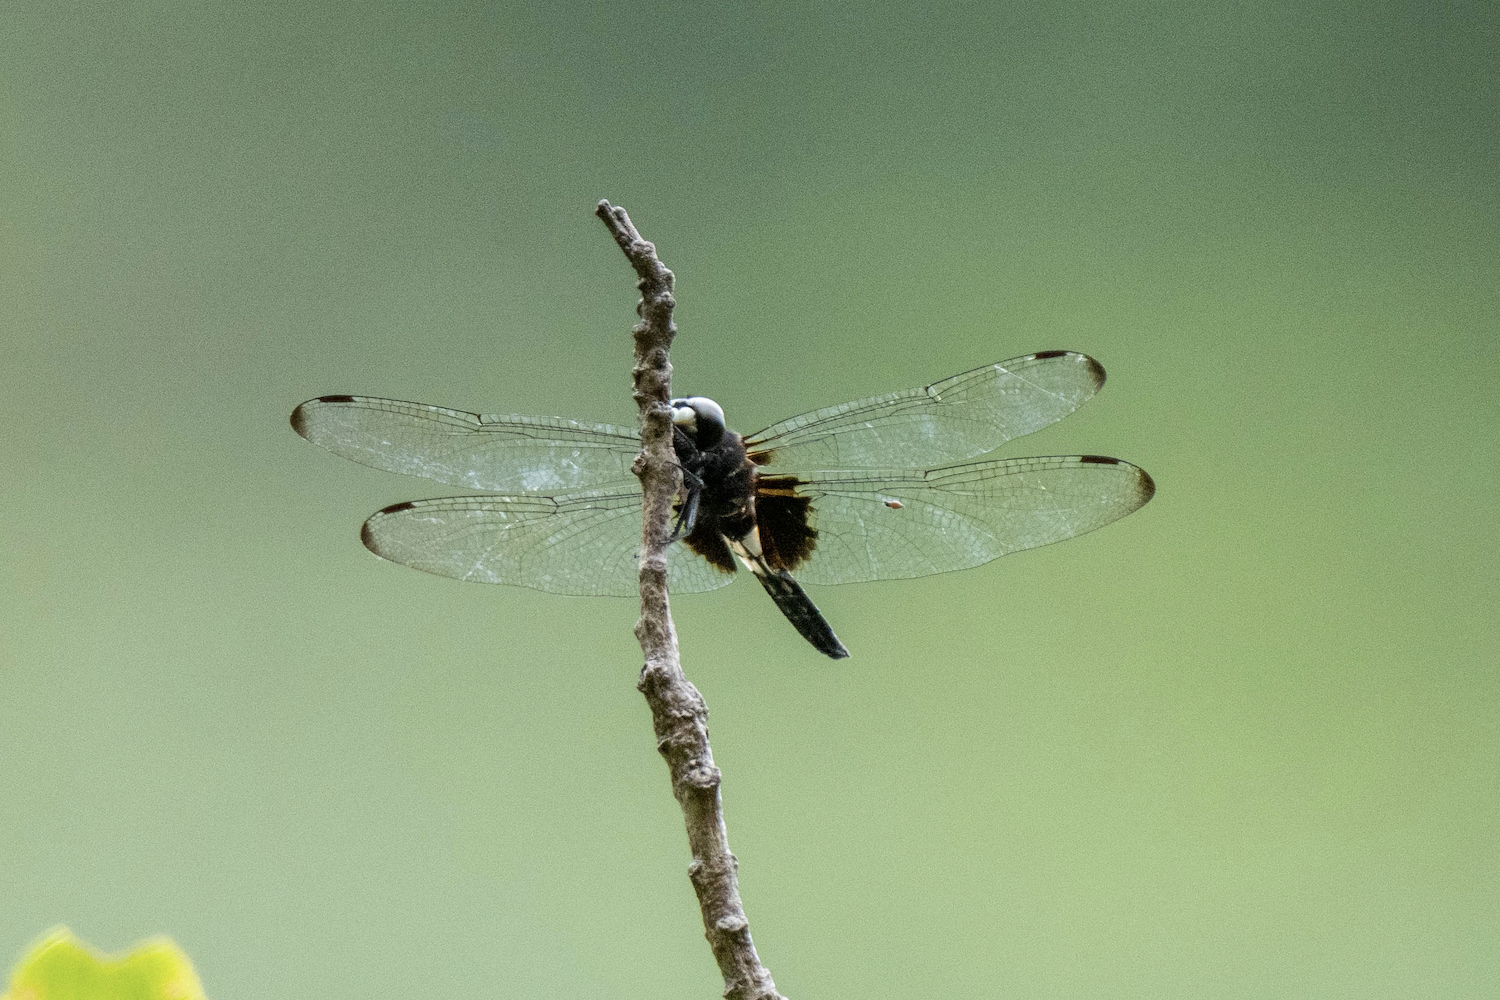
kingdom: Animalia
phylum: Arthropoda
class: Insecta
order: Odonata
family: Libellulidae
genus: Pseudothemis
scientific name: Pseudothemis zonata
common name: Pied skimmer
